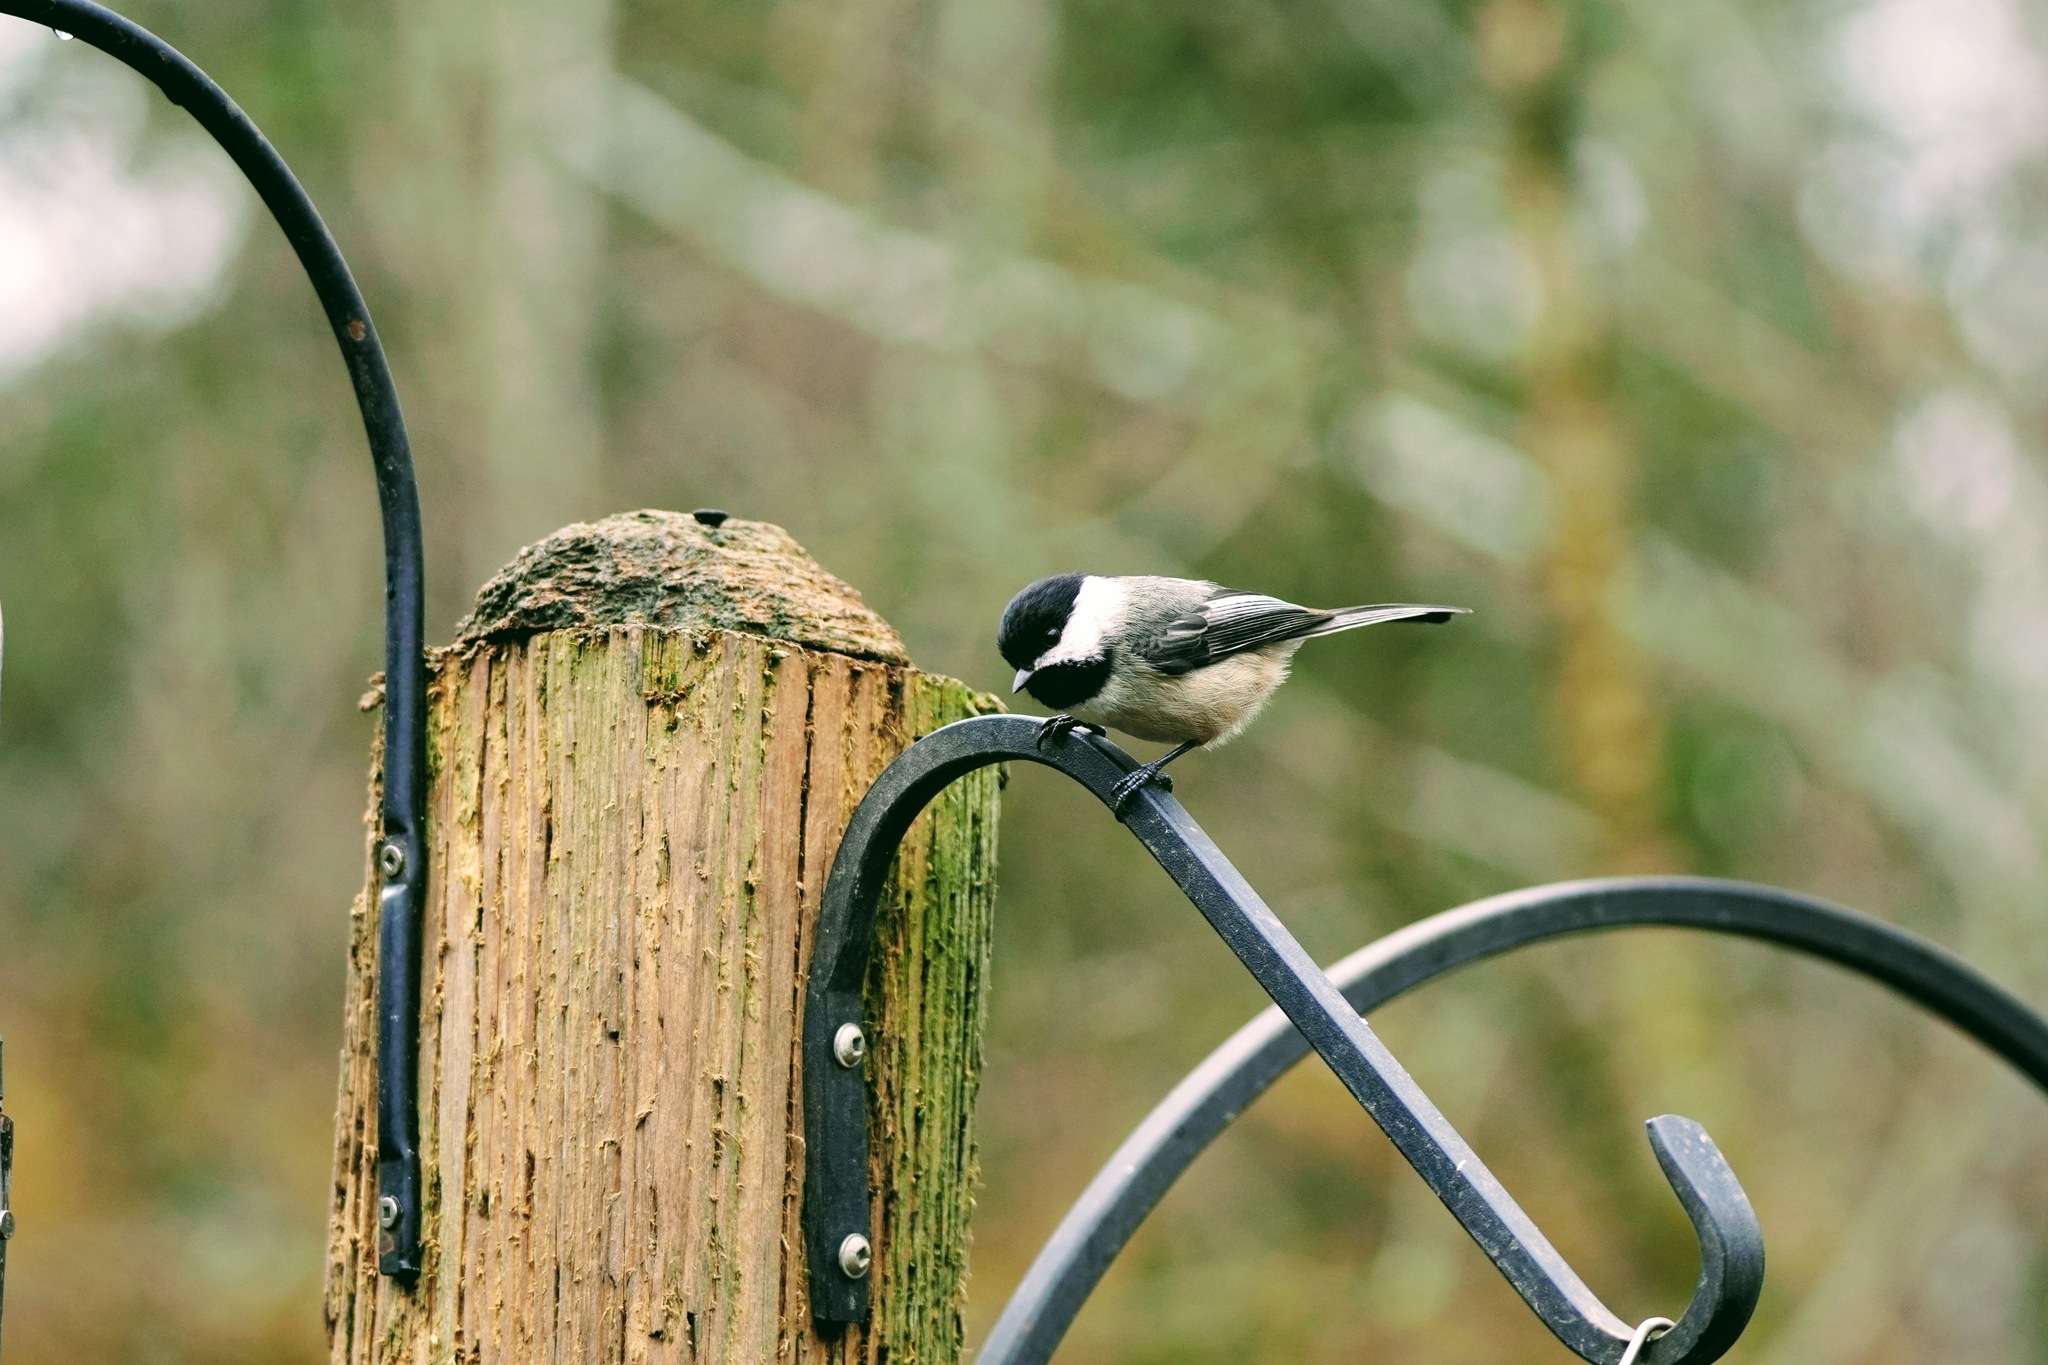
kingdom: Animalia
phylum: Chordata
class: Aves
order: Passeriformes
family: Paridae
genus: Poecile
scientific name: Poecile atricapillus
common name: Black-capped chickadee
